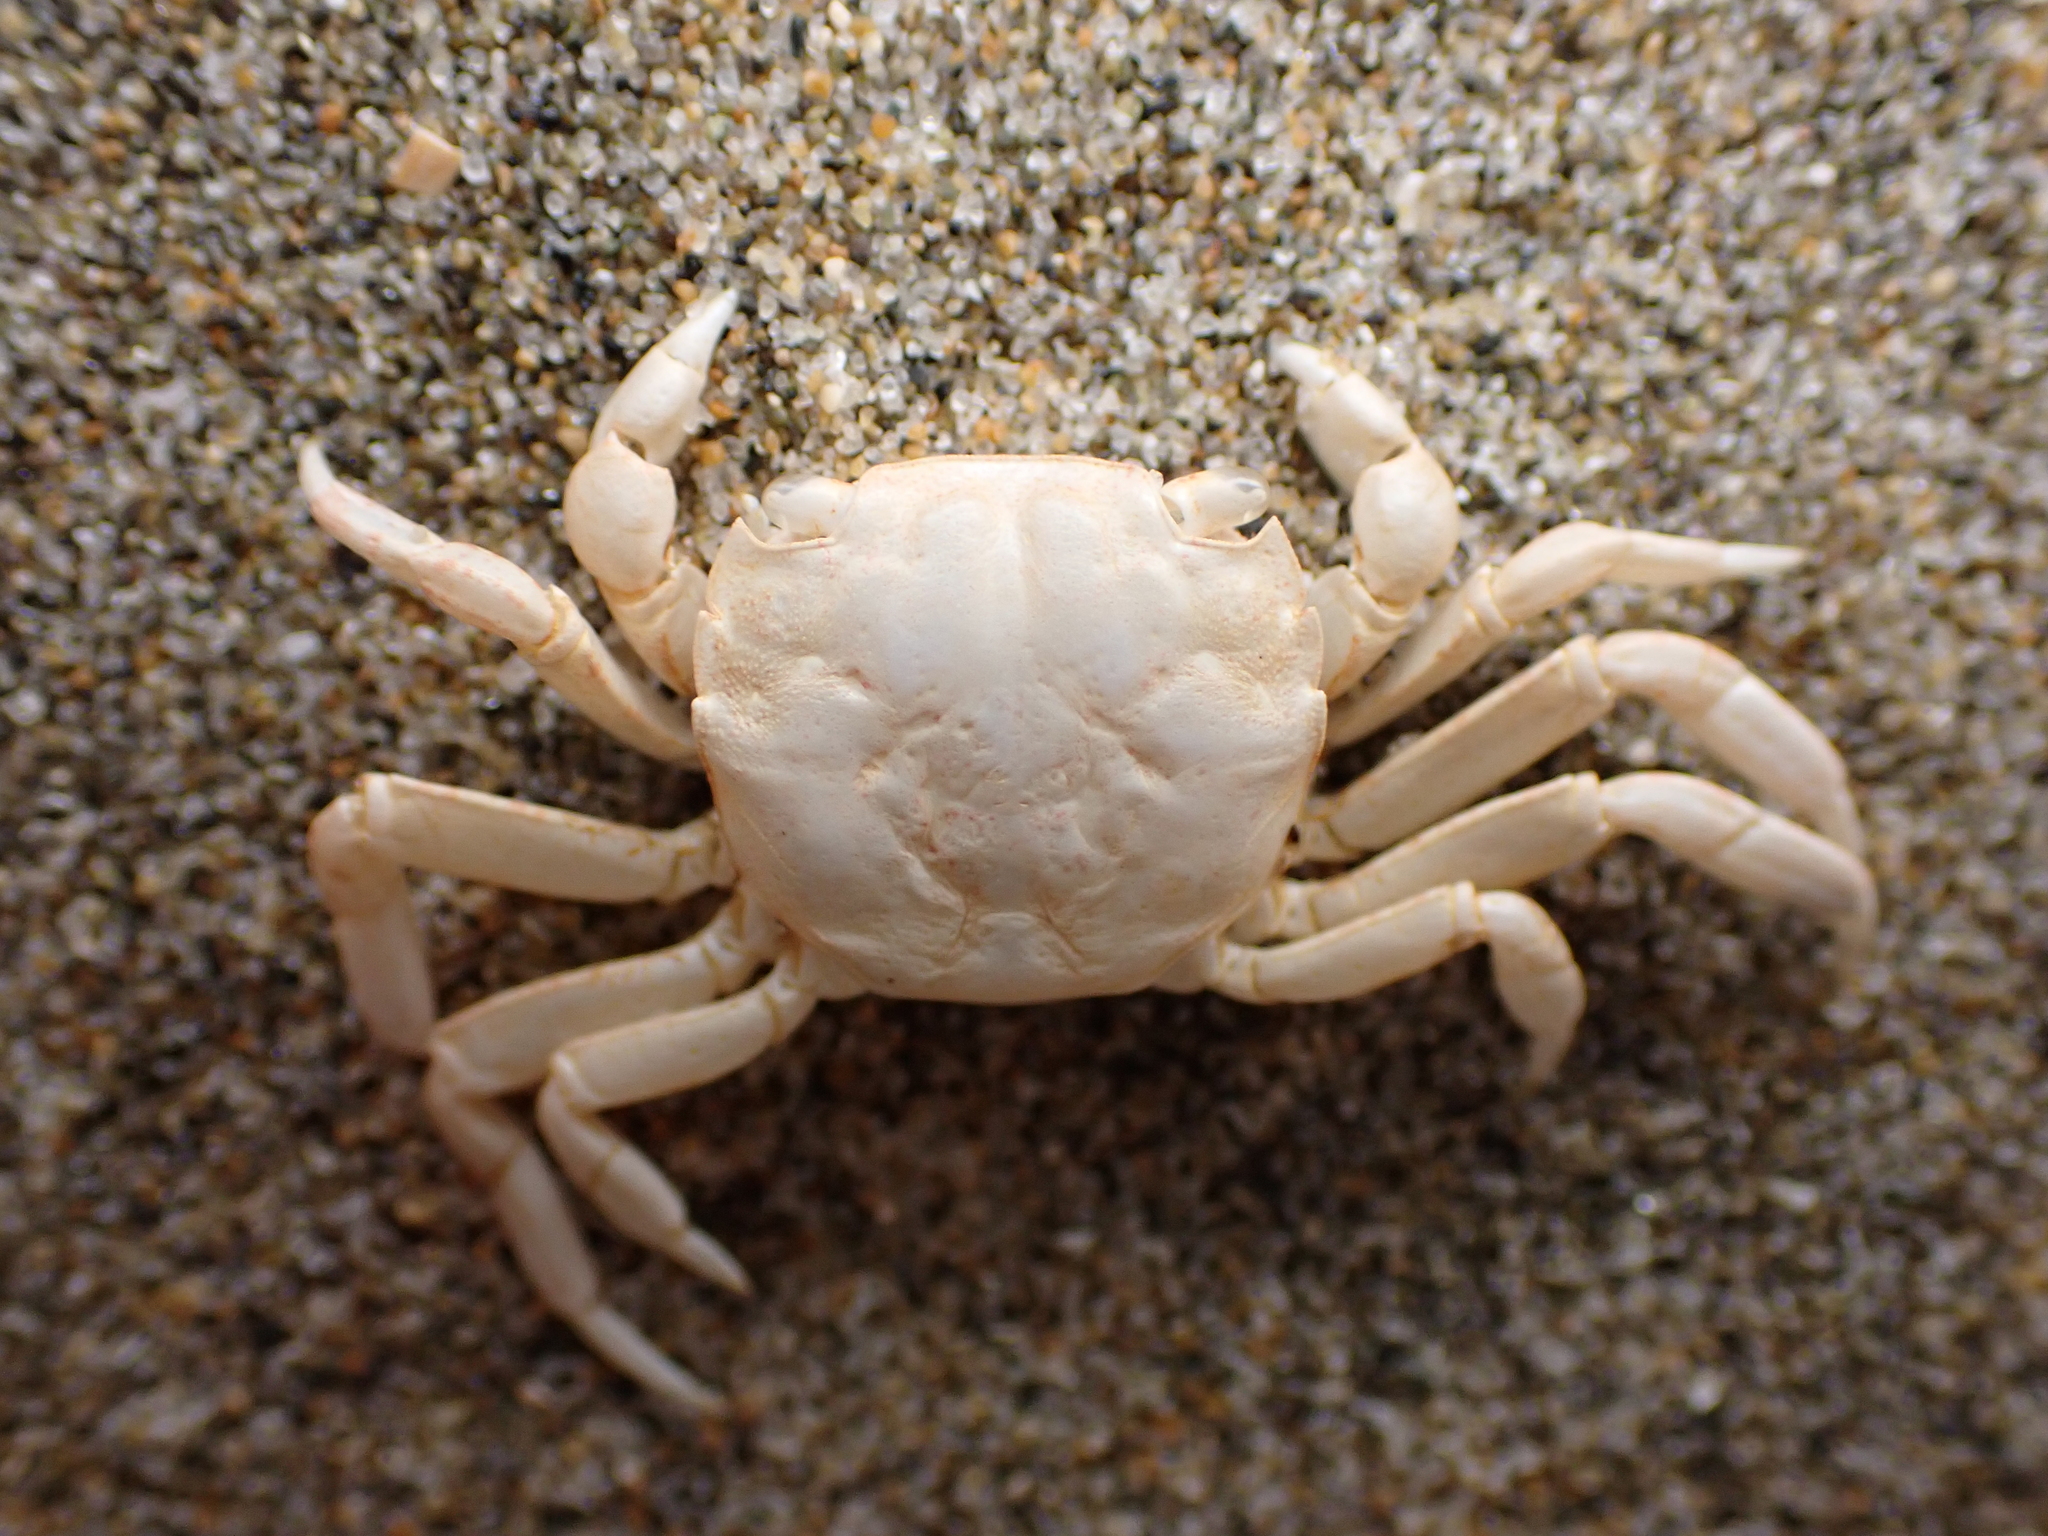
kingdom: Animalia
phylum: Arthropoda
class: Malacostraca
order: Decapoda
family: Varunidae
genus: Hemigrapsus
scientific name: Hemigrapsus crenulatus
